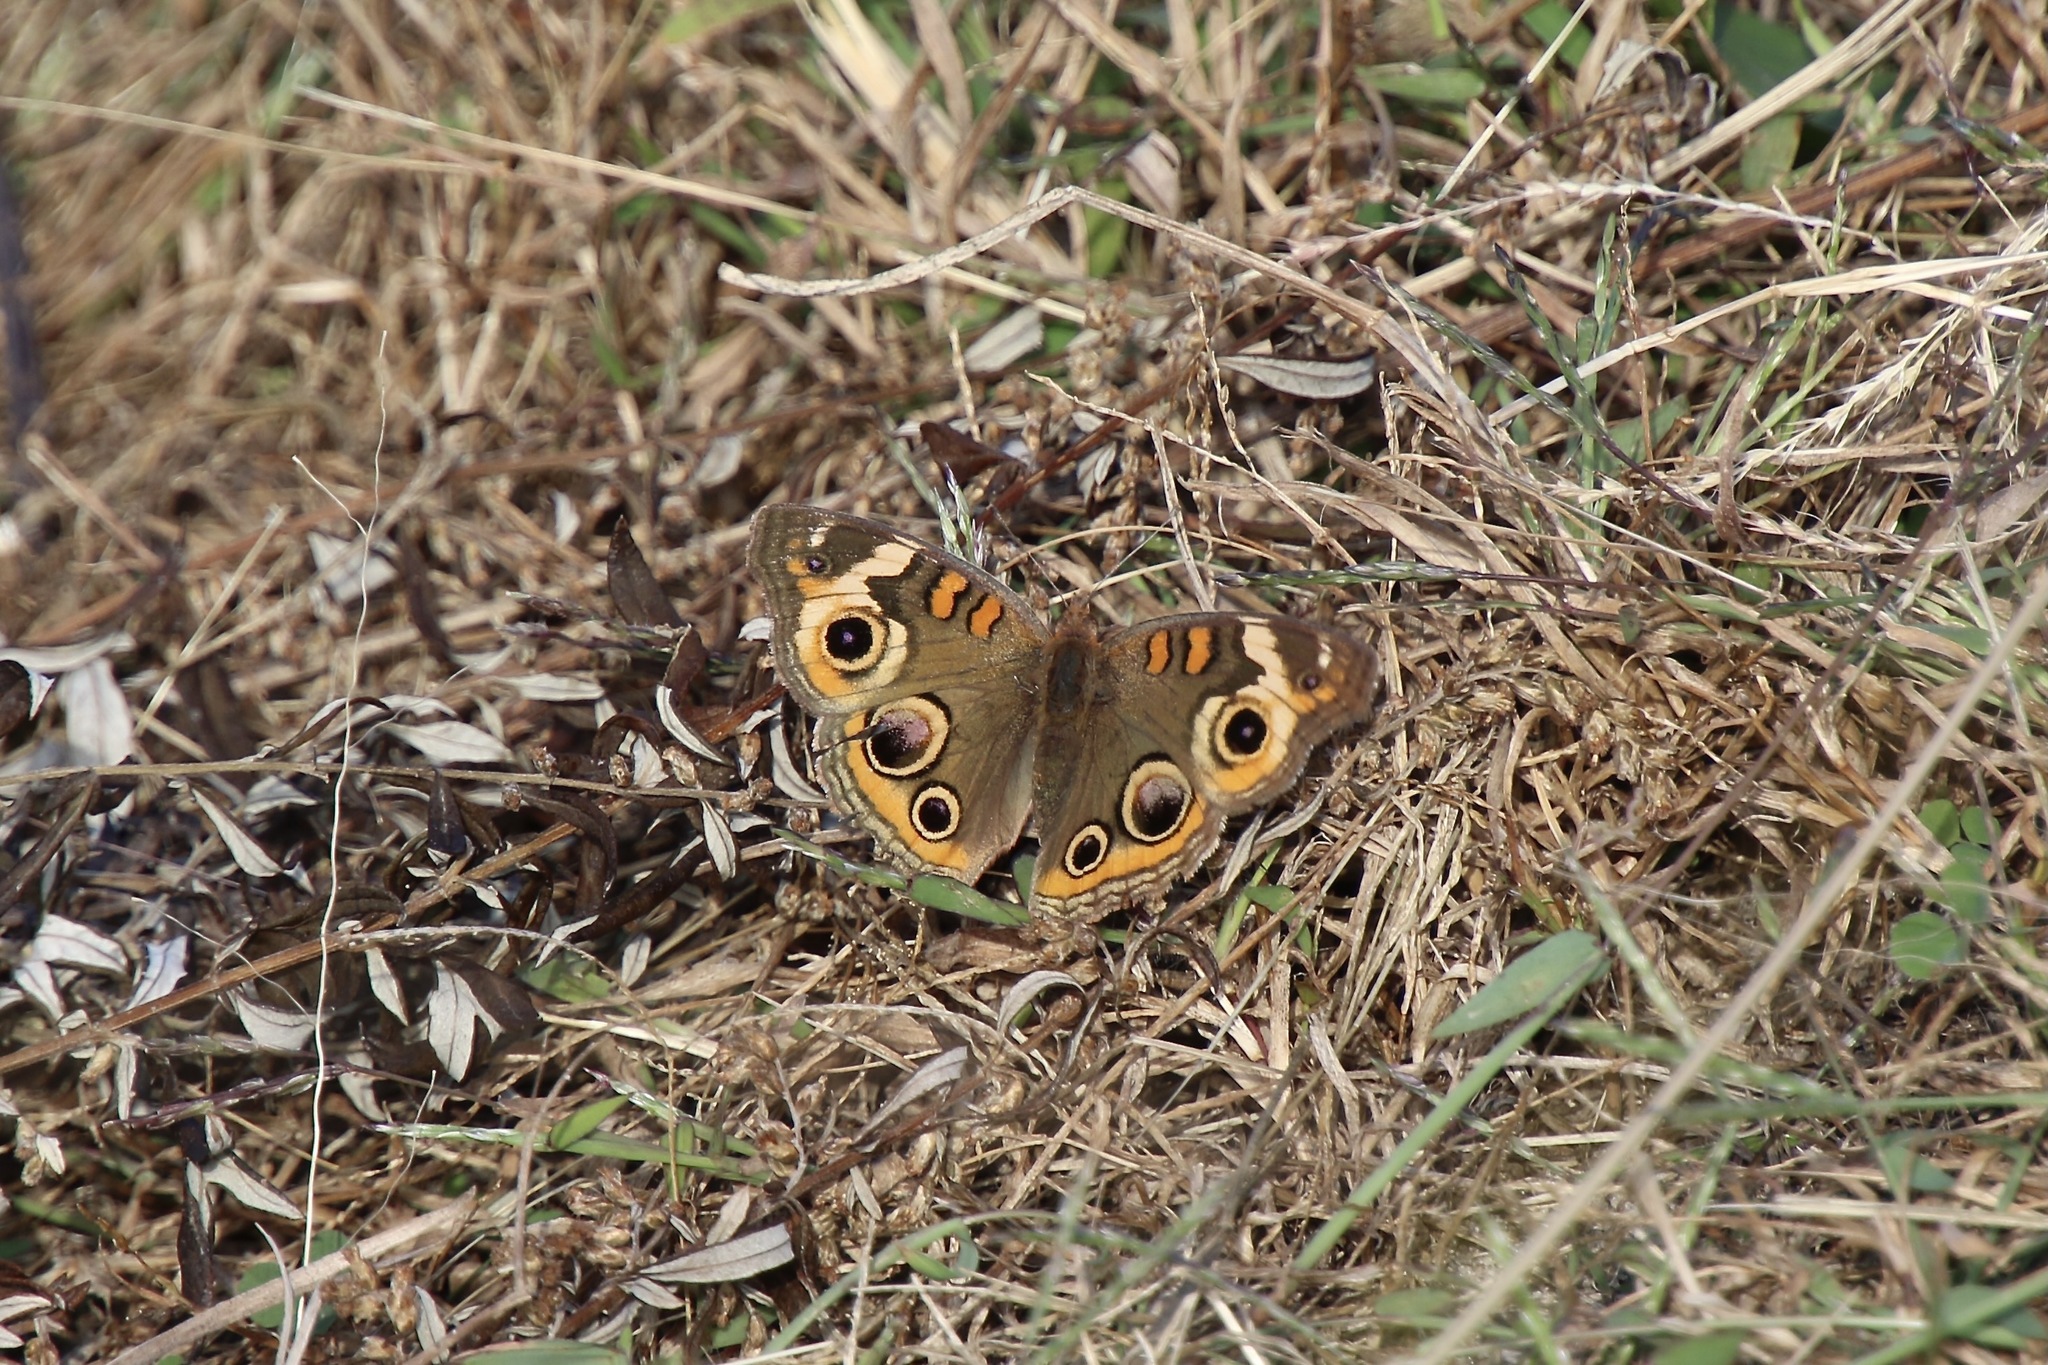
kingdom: Animalia
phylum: Arthropoda
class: Insecta
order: Lepidoptera
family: Nymphalidae
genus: Junonia
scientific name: Junonia coenia
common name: Common buckeye
